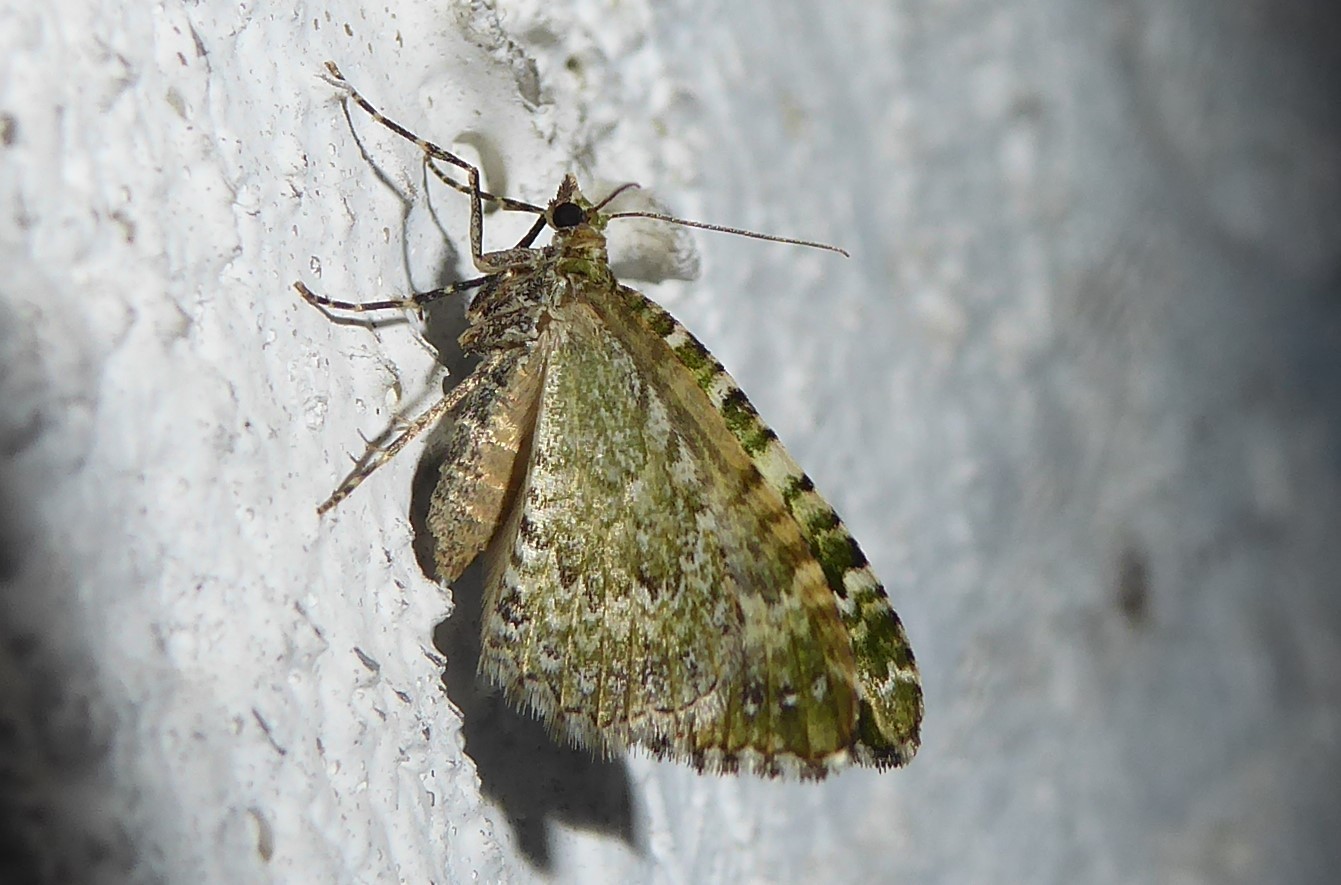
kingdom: Animalia
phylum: Arthropoda
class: Insecta
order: Lepidoptera
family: Geometridae
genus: Asaphodes
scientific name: Asaphodes beata
